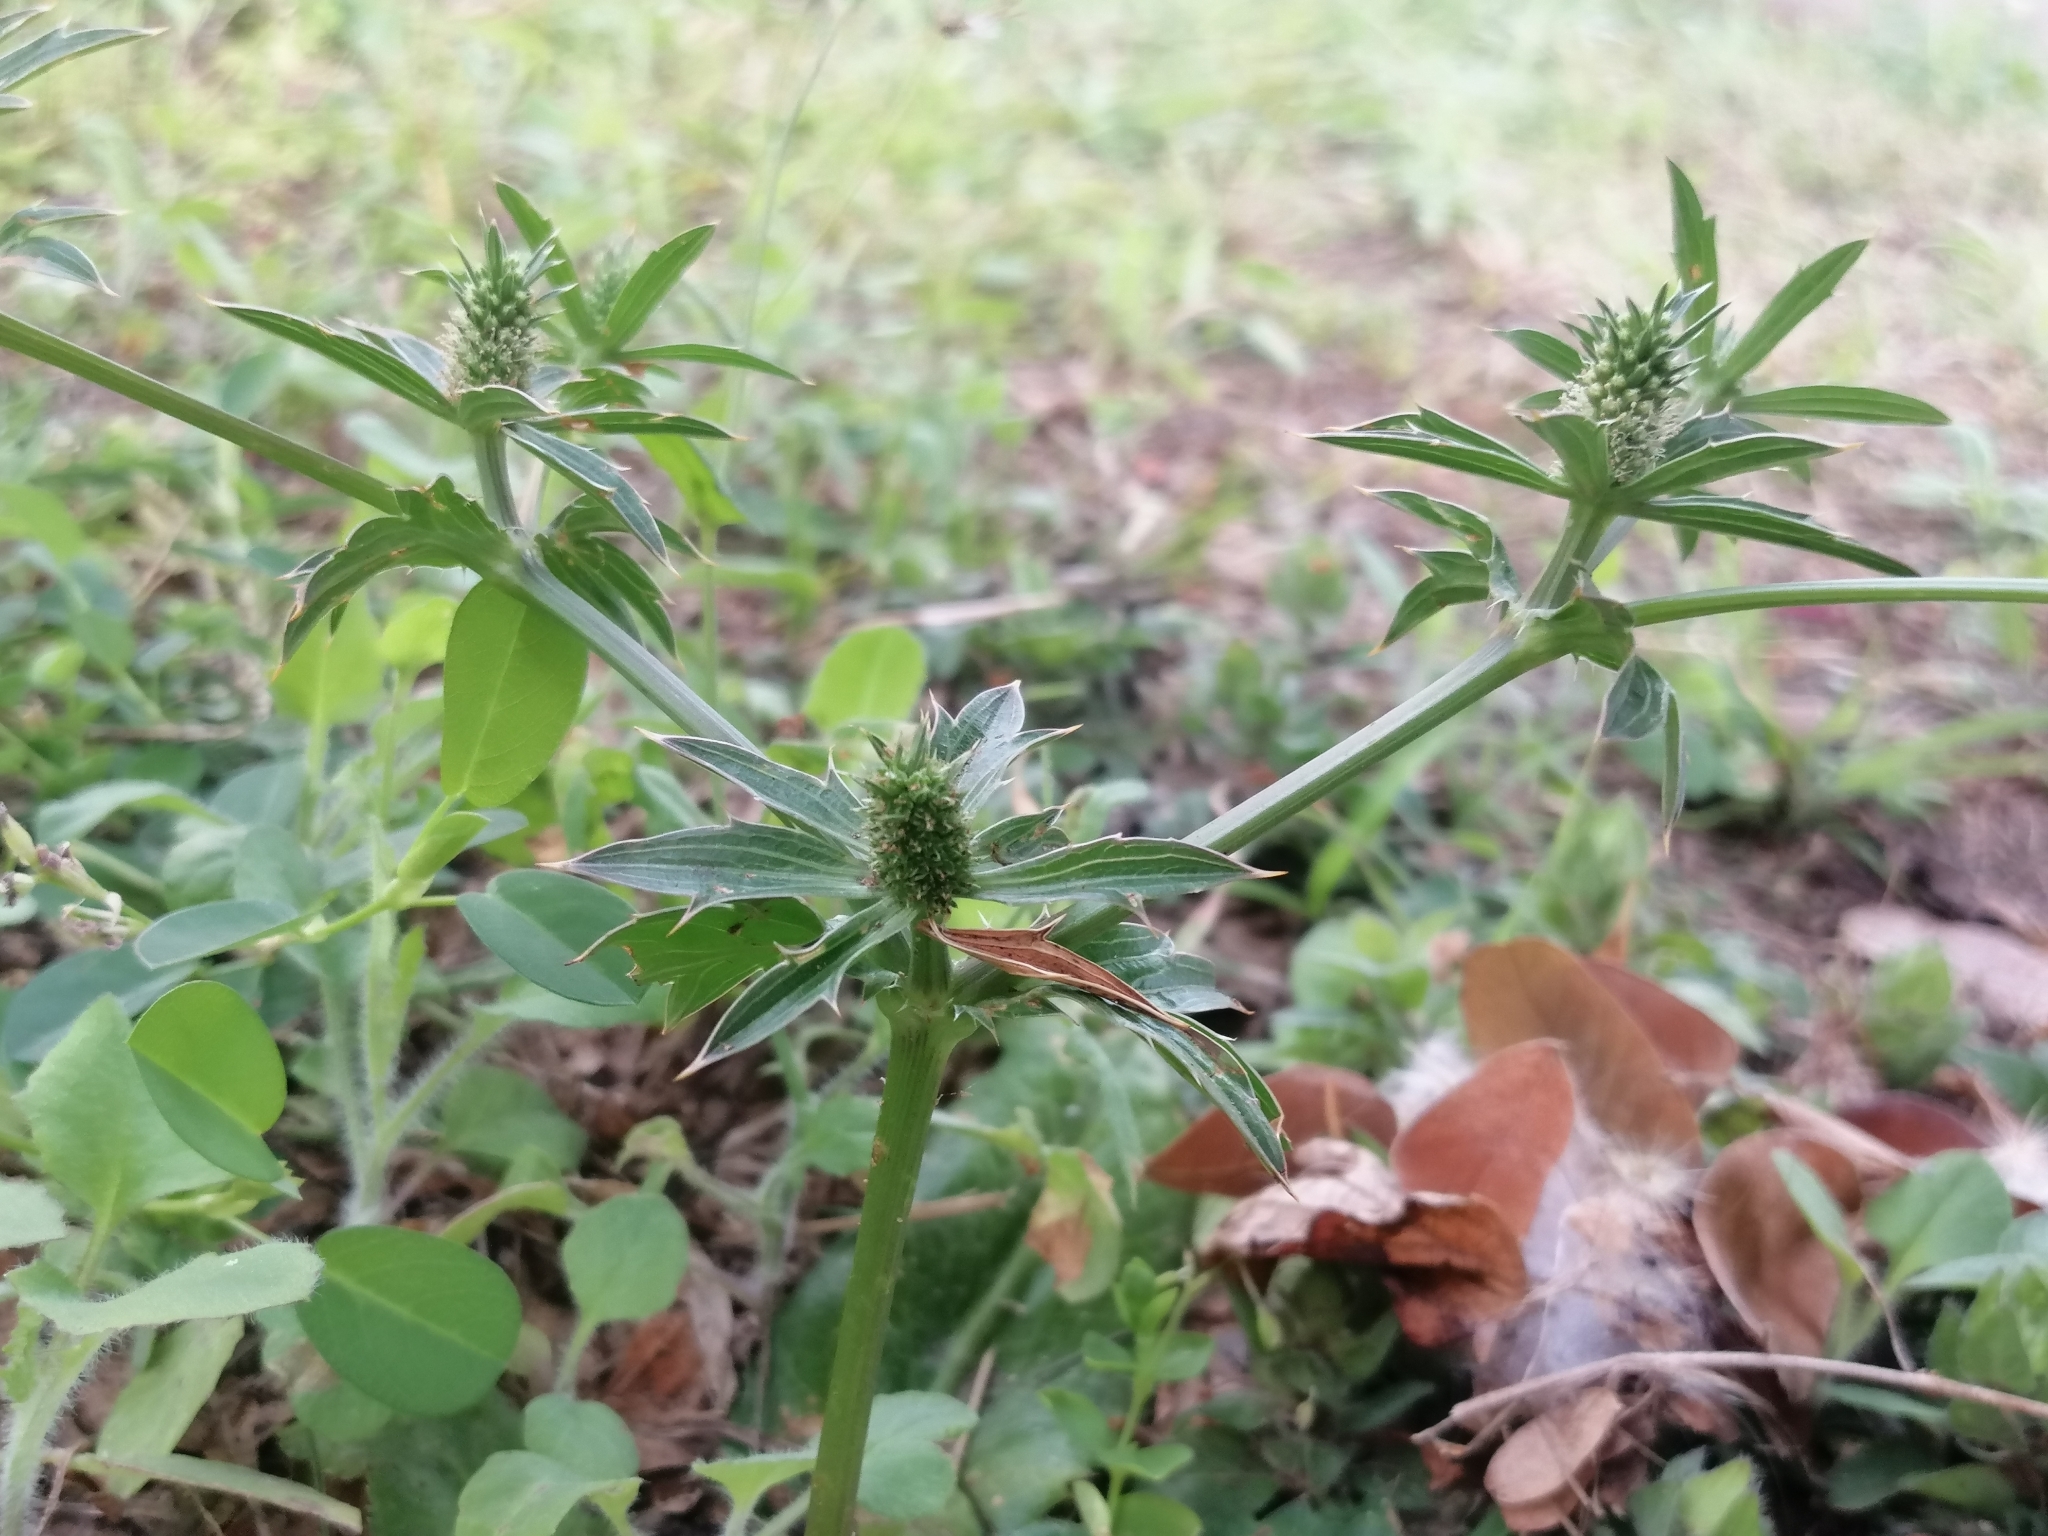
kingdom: Plantae
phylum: Tracheophyta
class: Magnoliopsida
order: Apiales
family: Apiaceae
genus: Eryngium
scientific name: Eryngium foetidum
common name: Fitweed
